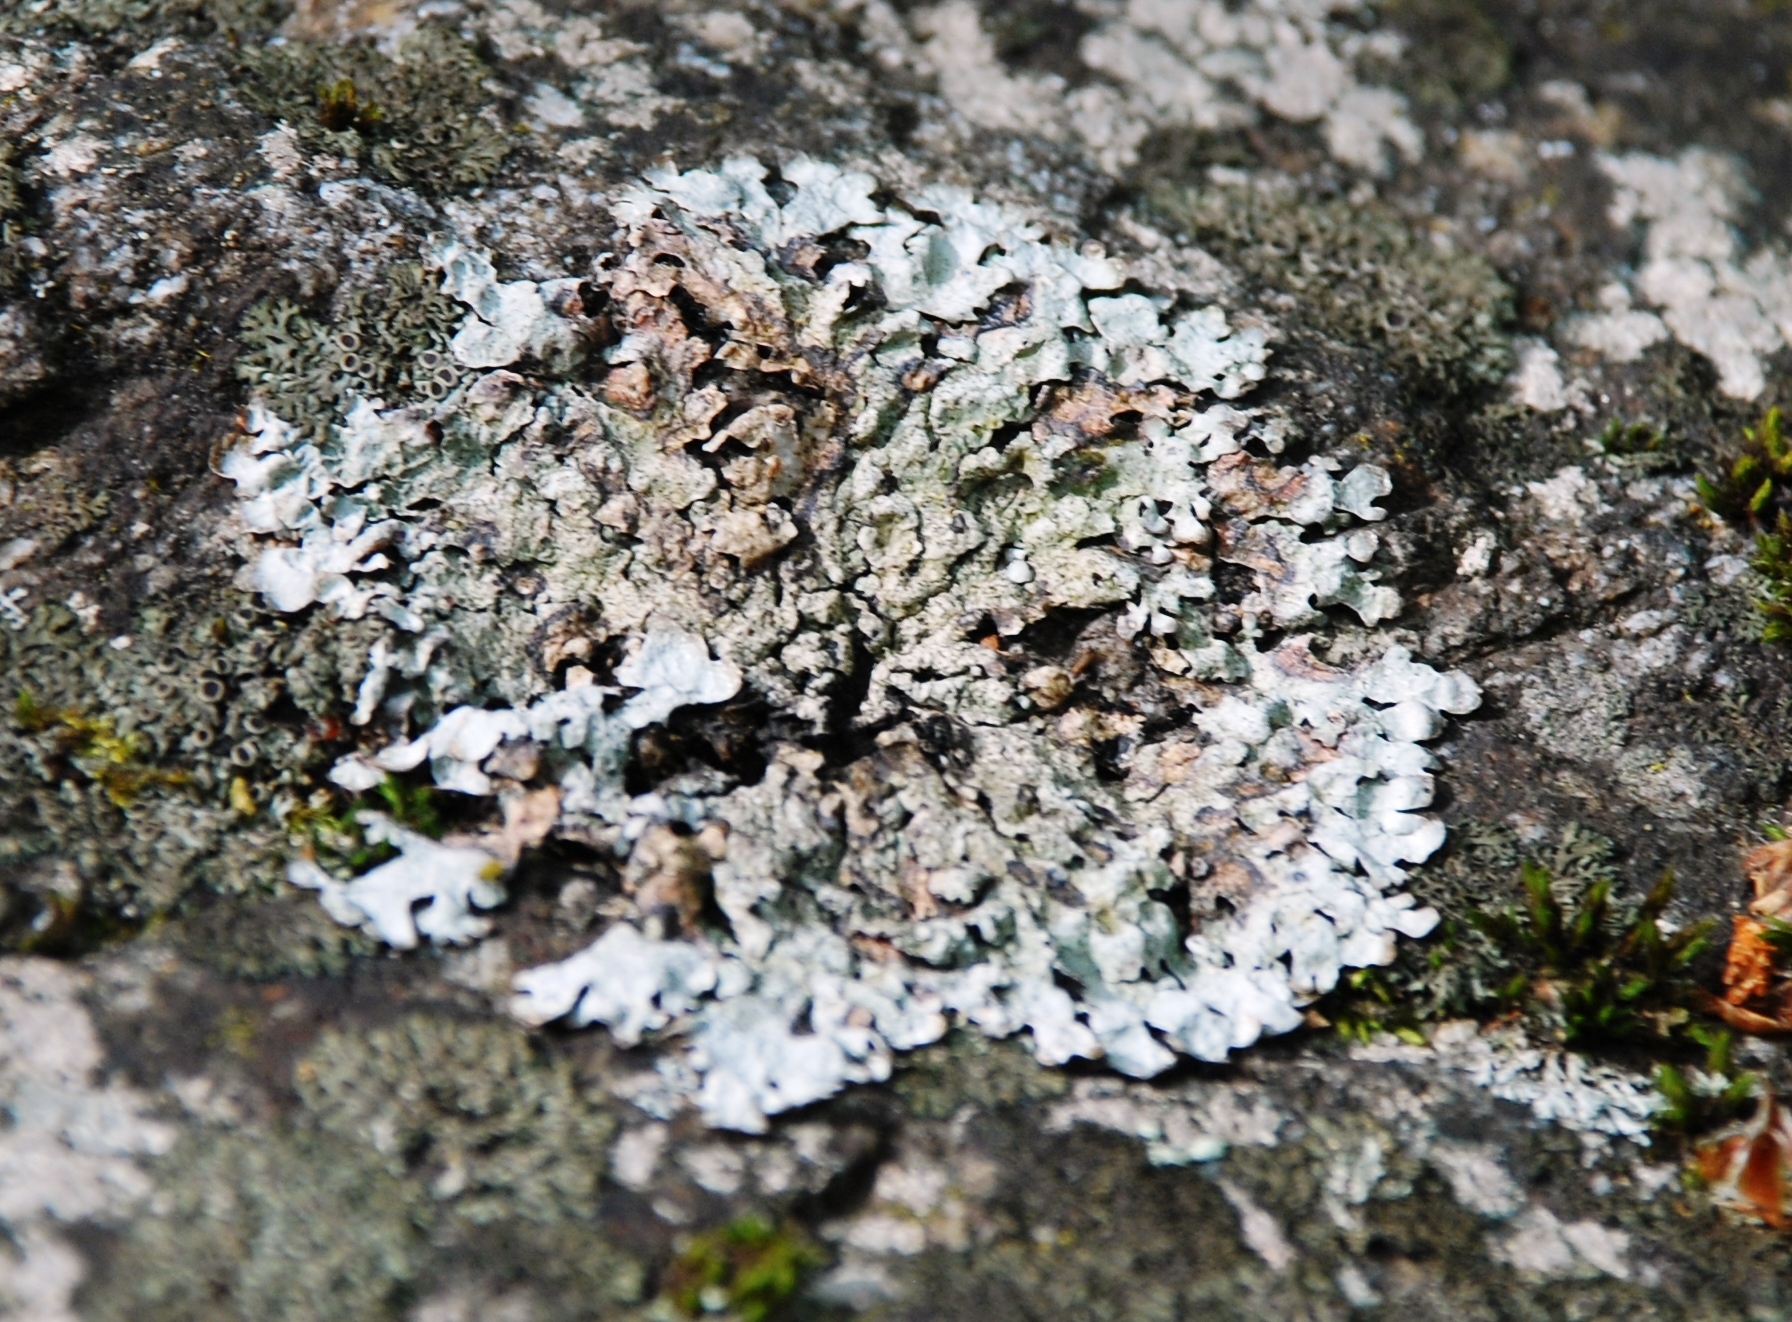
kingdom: Fungi
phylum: Ascomycota
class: Lecanoromycetes
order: Lecanorales
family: Parmeliaceae
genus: Parmelia
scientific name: Parmelia sulcata
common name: Netted shield lichen
